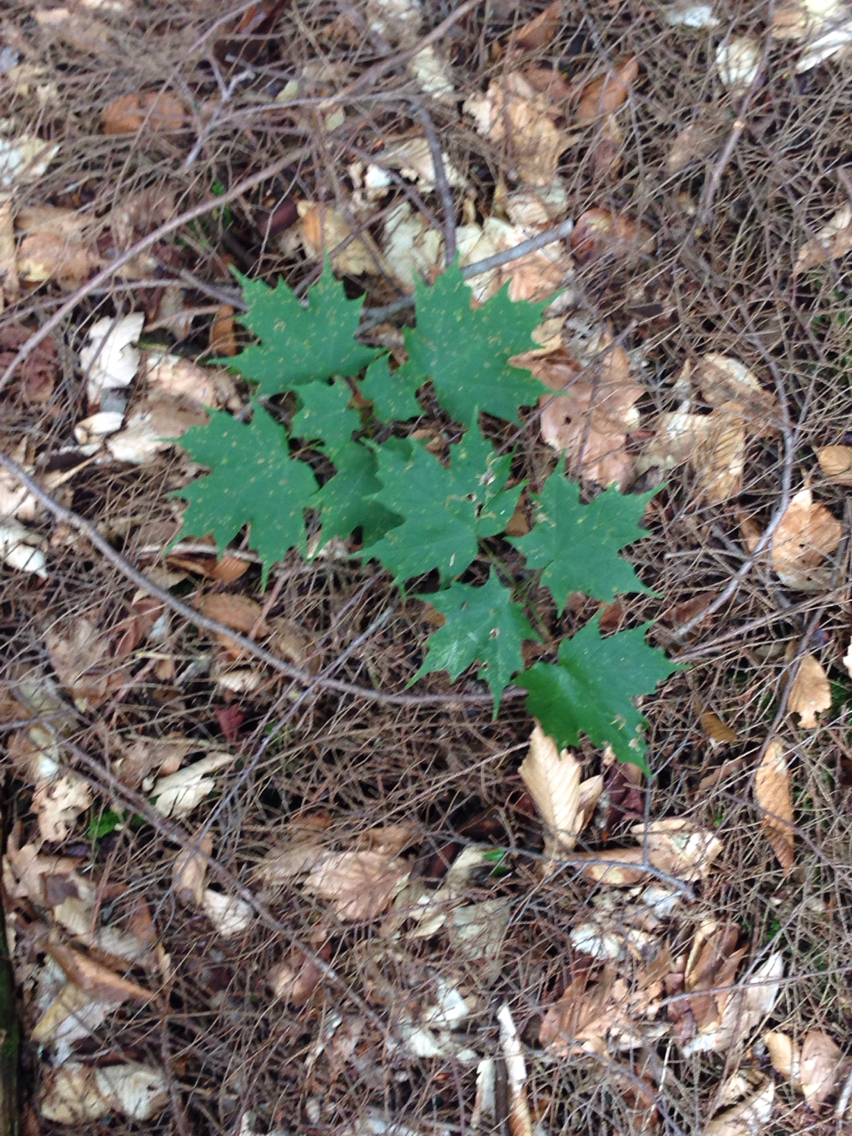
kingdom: Plantae
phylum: Tracheophyta
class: Magnoliopsida
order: Sapindales
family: Sapindaceae
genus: Acer
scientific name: Acer saccharum
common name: Sugar maple
